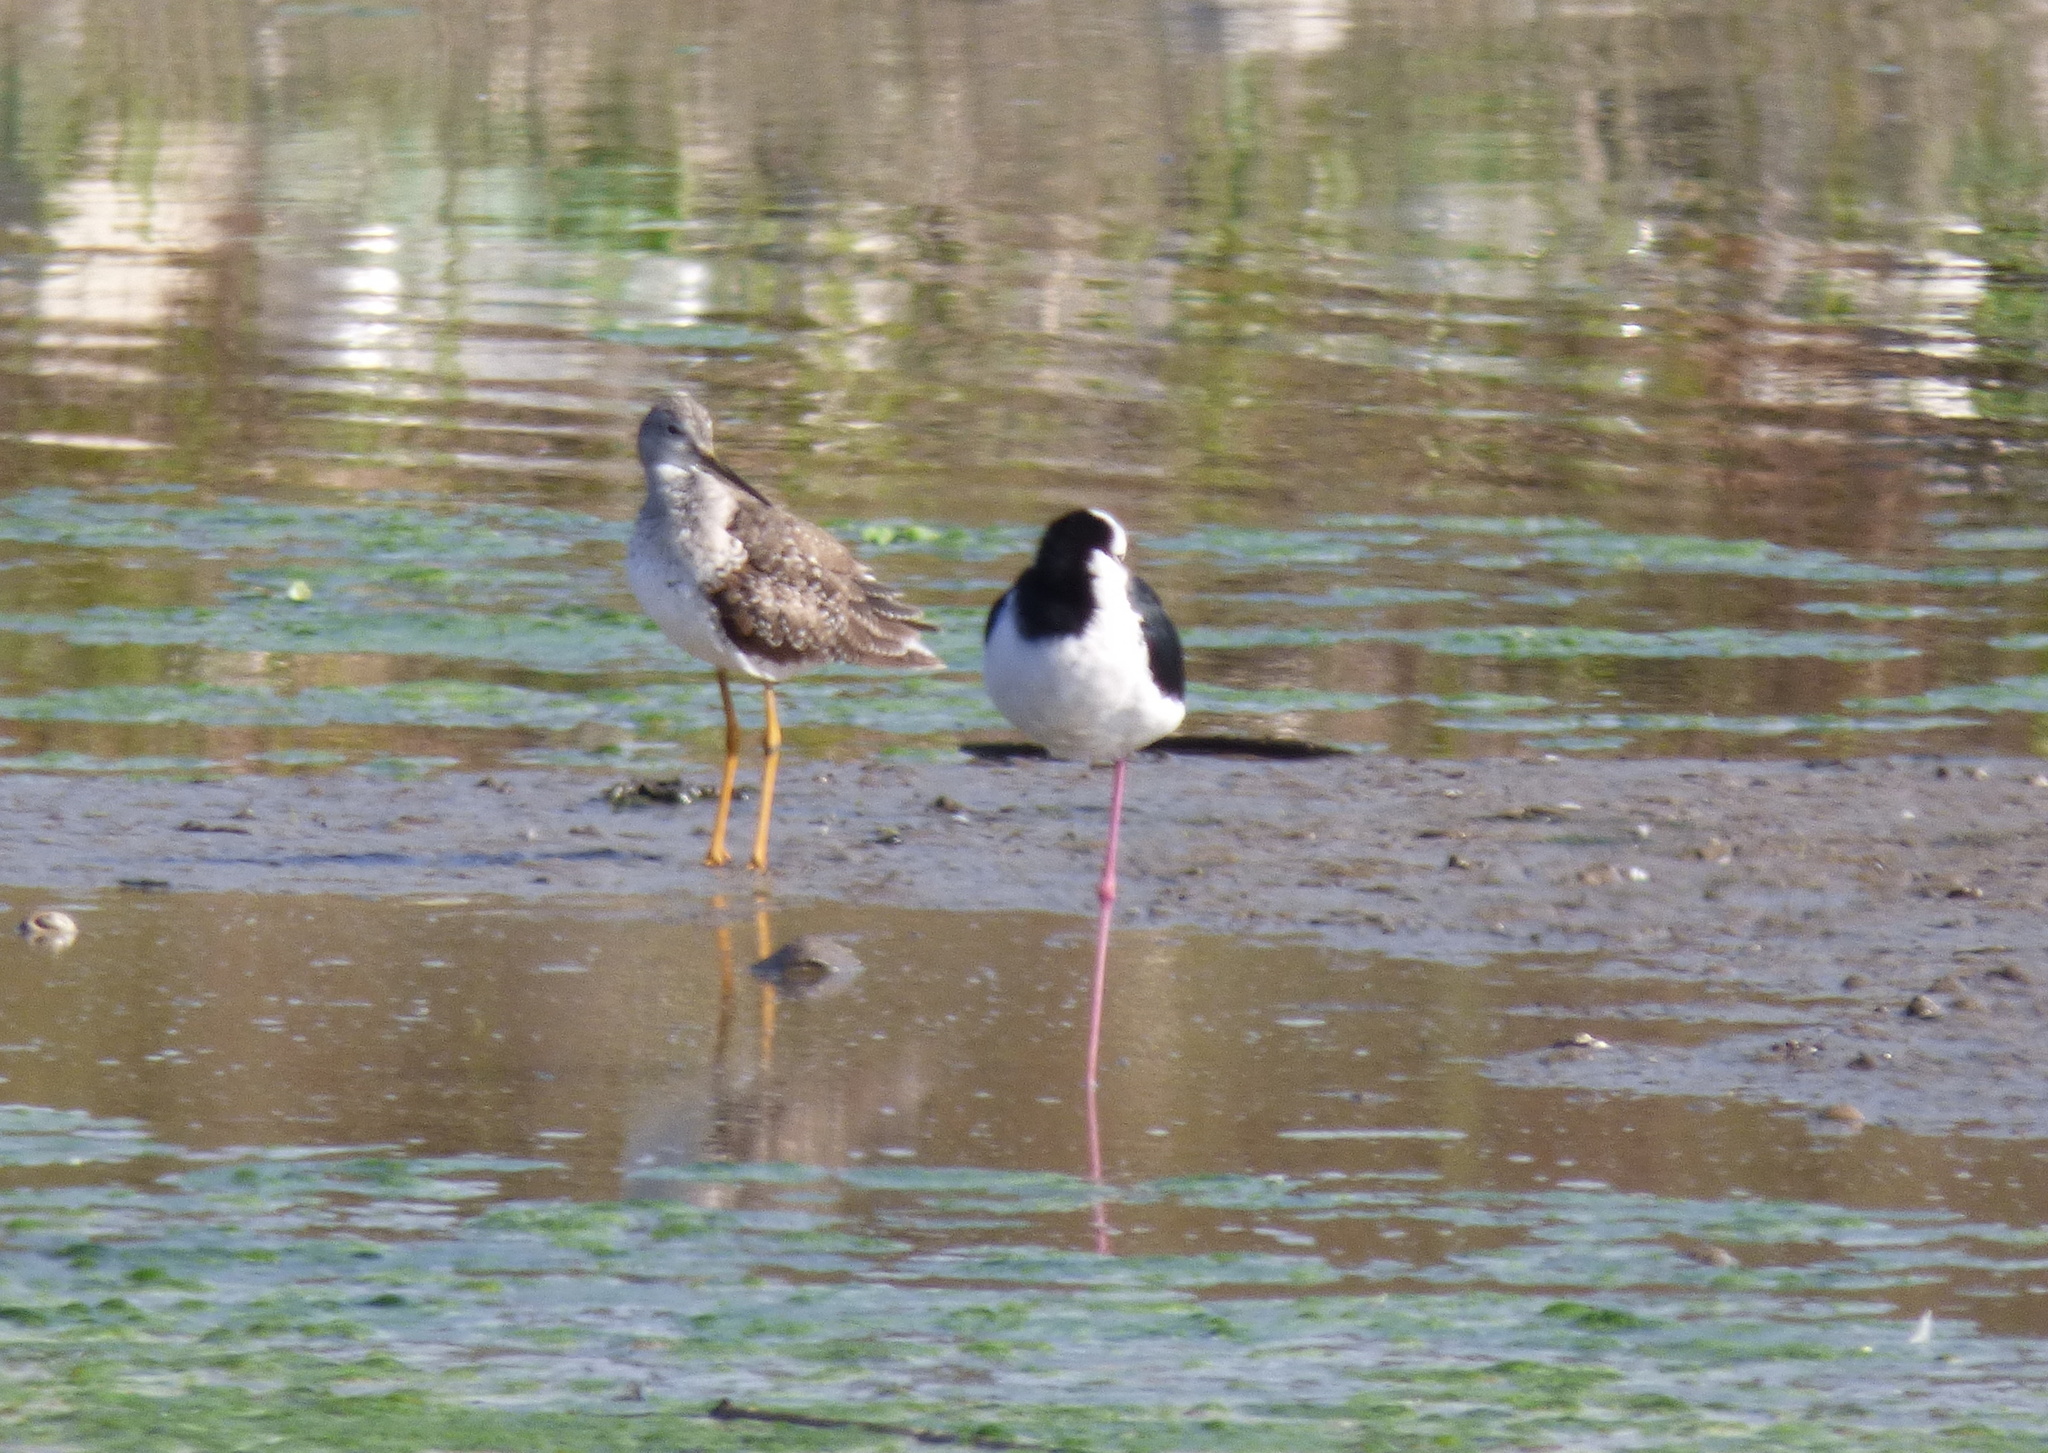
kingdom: Animalia
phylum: Chordata
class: Aves
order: Charadriiformes
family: Scolopacidae
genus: Tringa
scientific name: Tringa melanoleuca
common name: Greater yellowlegs
